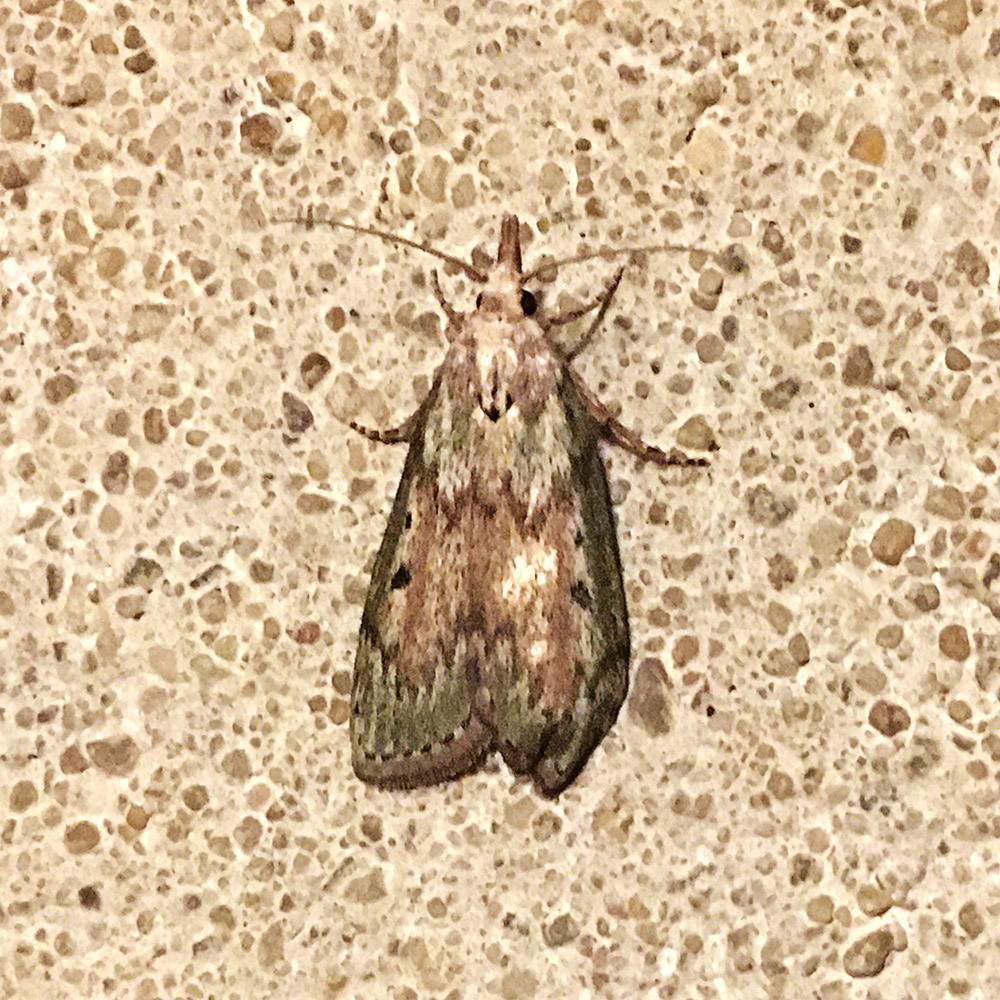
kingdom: Animalia
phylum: Arthropoda
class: Insecta
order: Lepidoptera
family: Pyralidae
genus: Aphomia
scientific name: Aphomia sociella
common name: Bee moth
